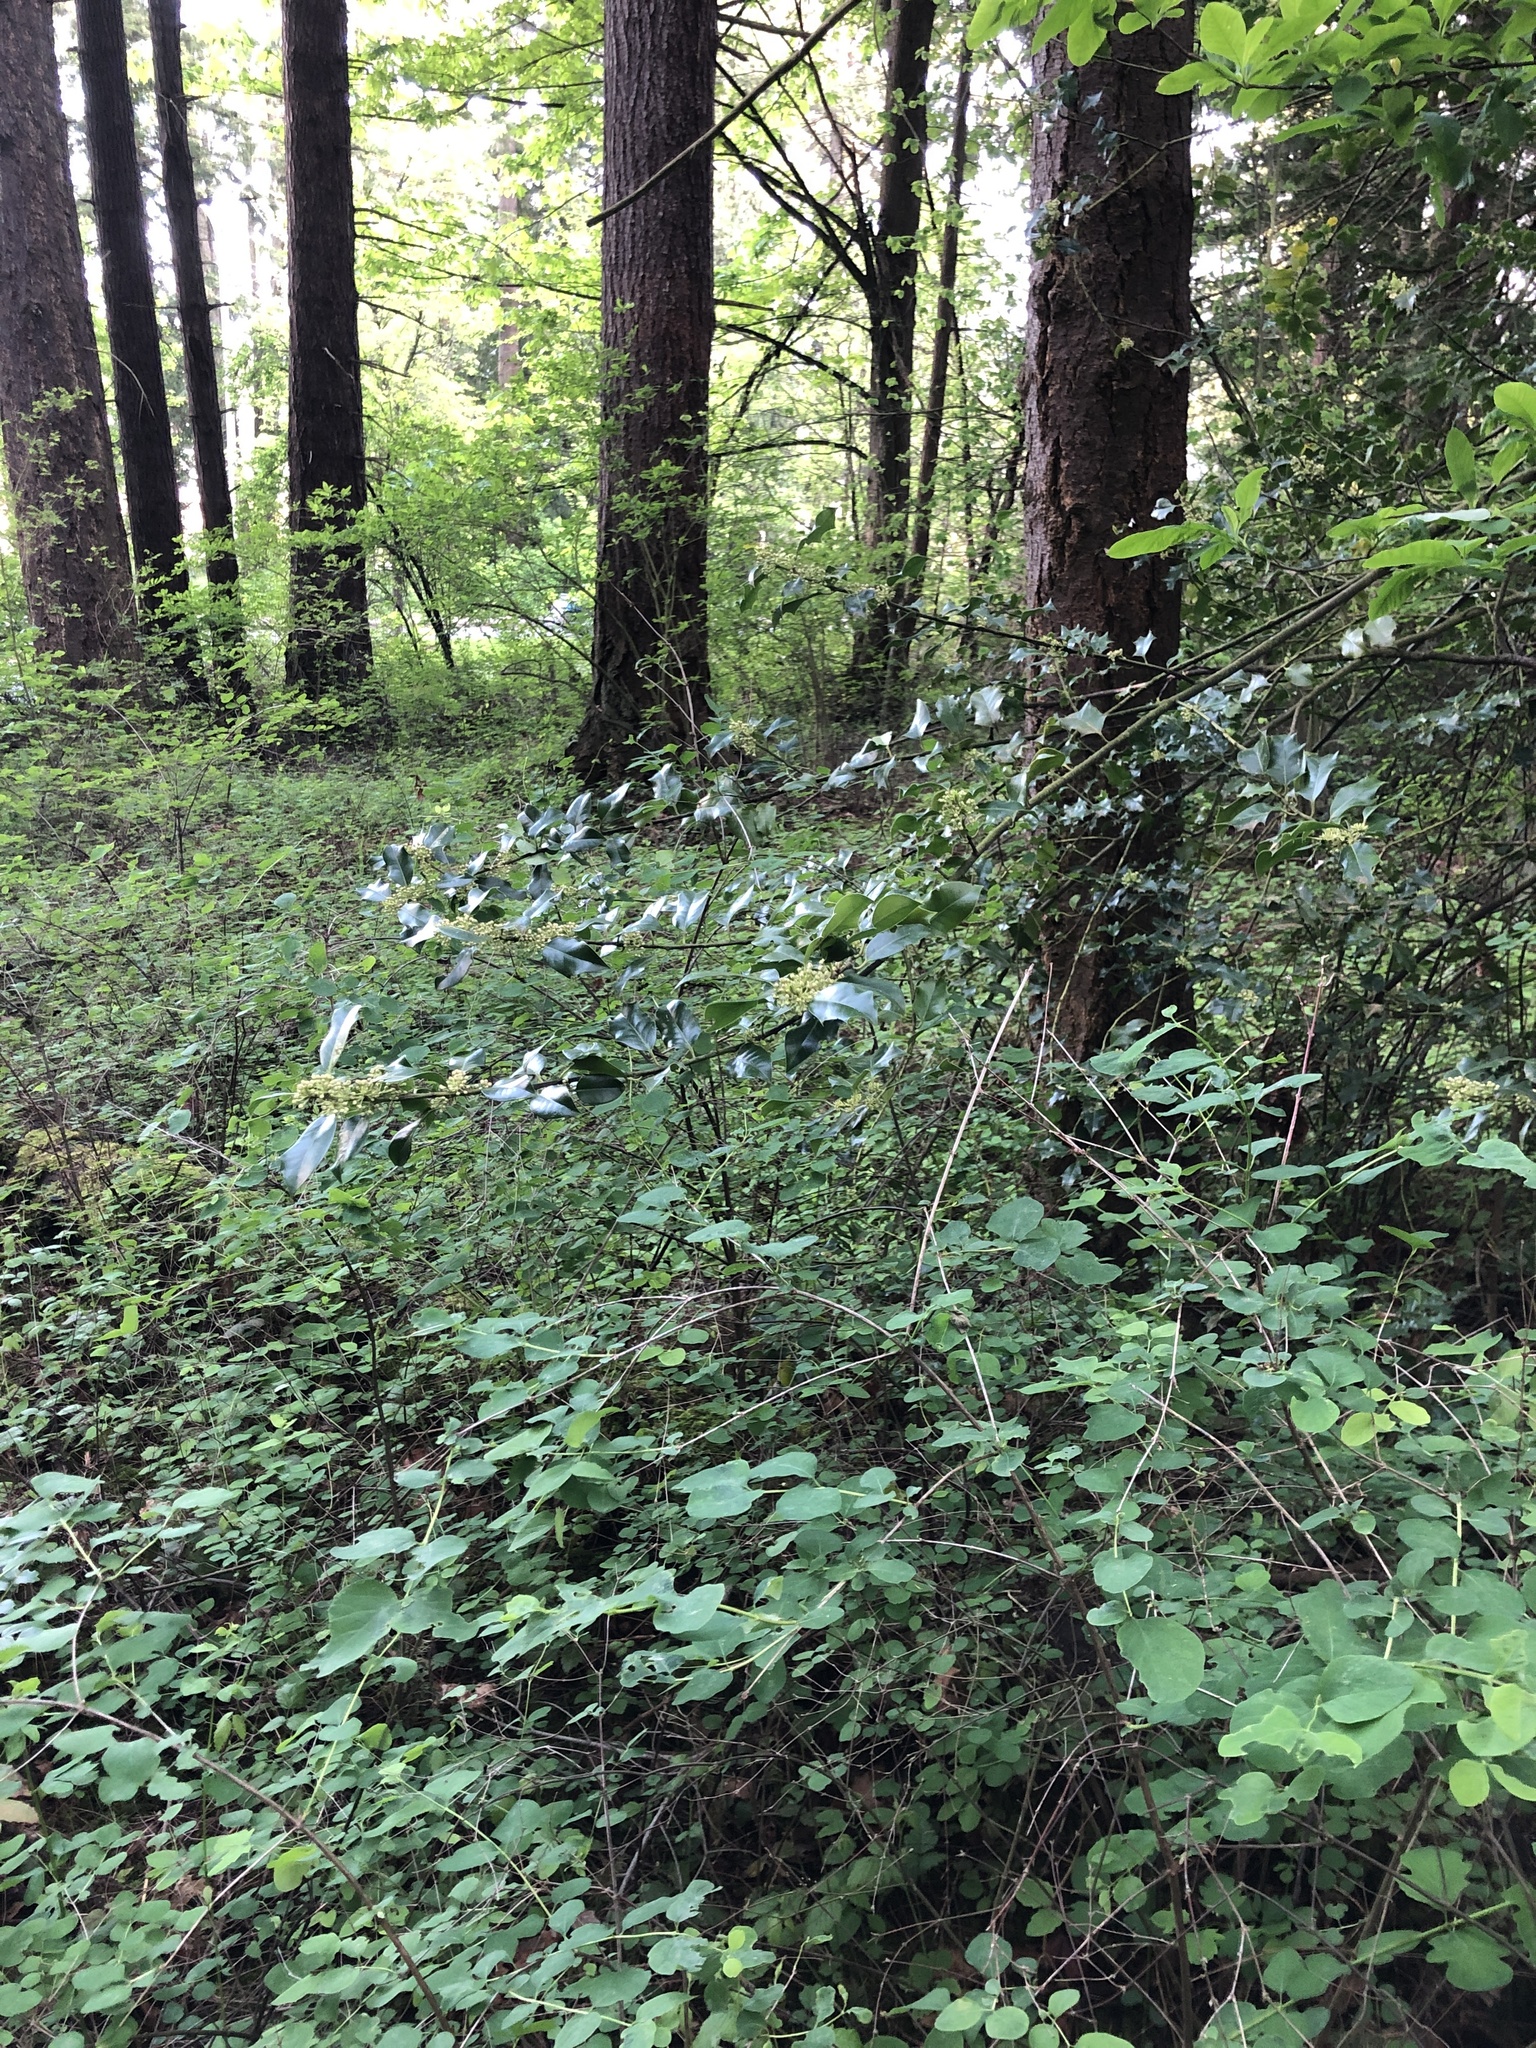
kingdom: Plantae
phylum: Tracheophyta
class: Magnoliopsida
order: Aquifoliales
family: Aquifoliaceae
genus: Ilex
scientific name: Ilex aquifolium
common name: English holly
